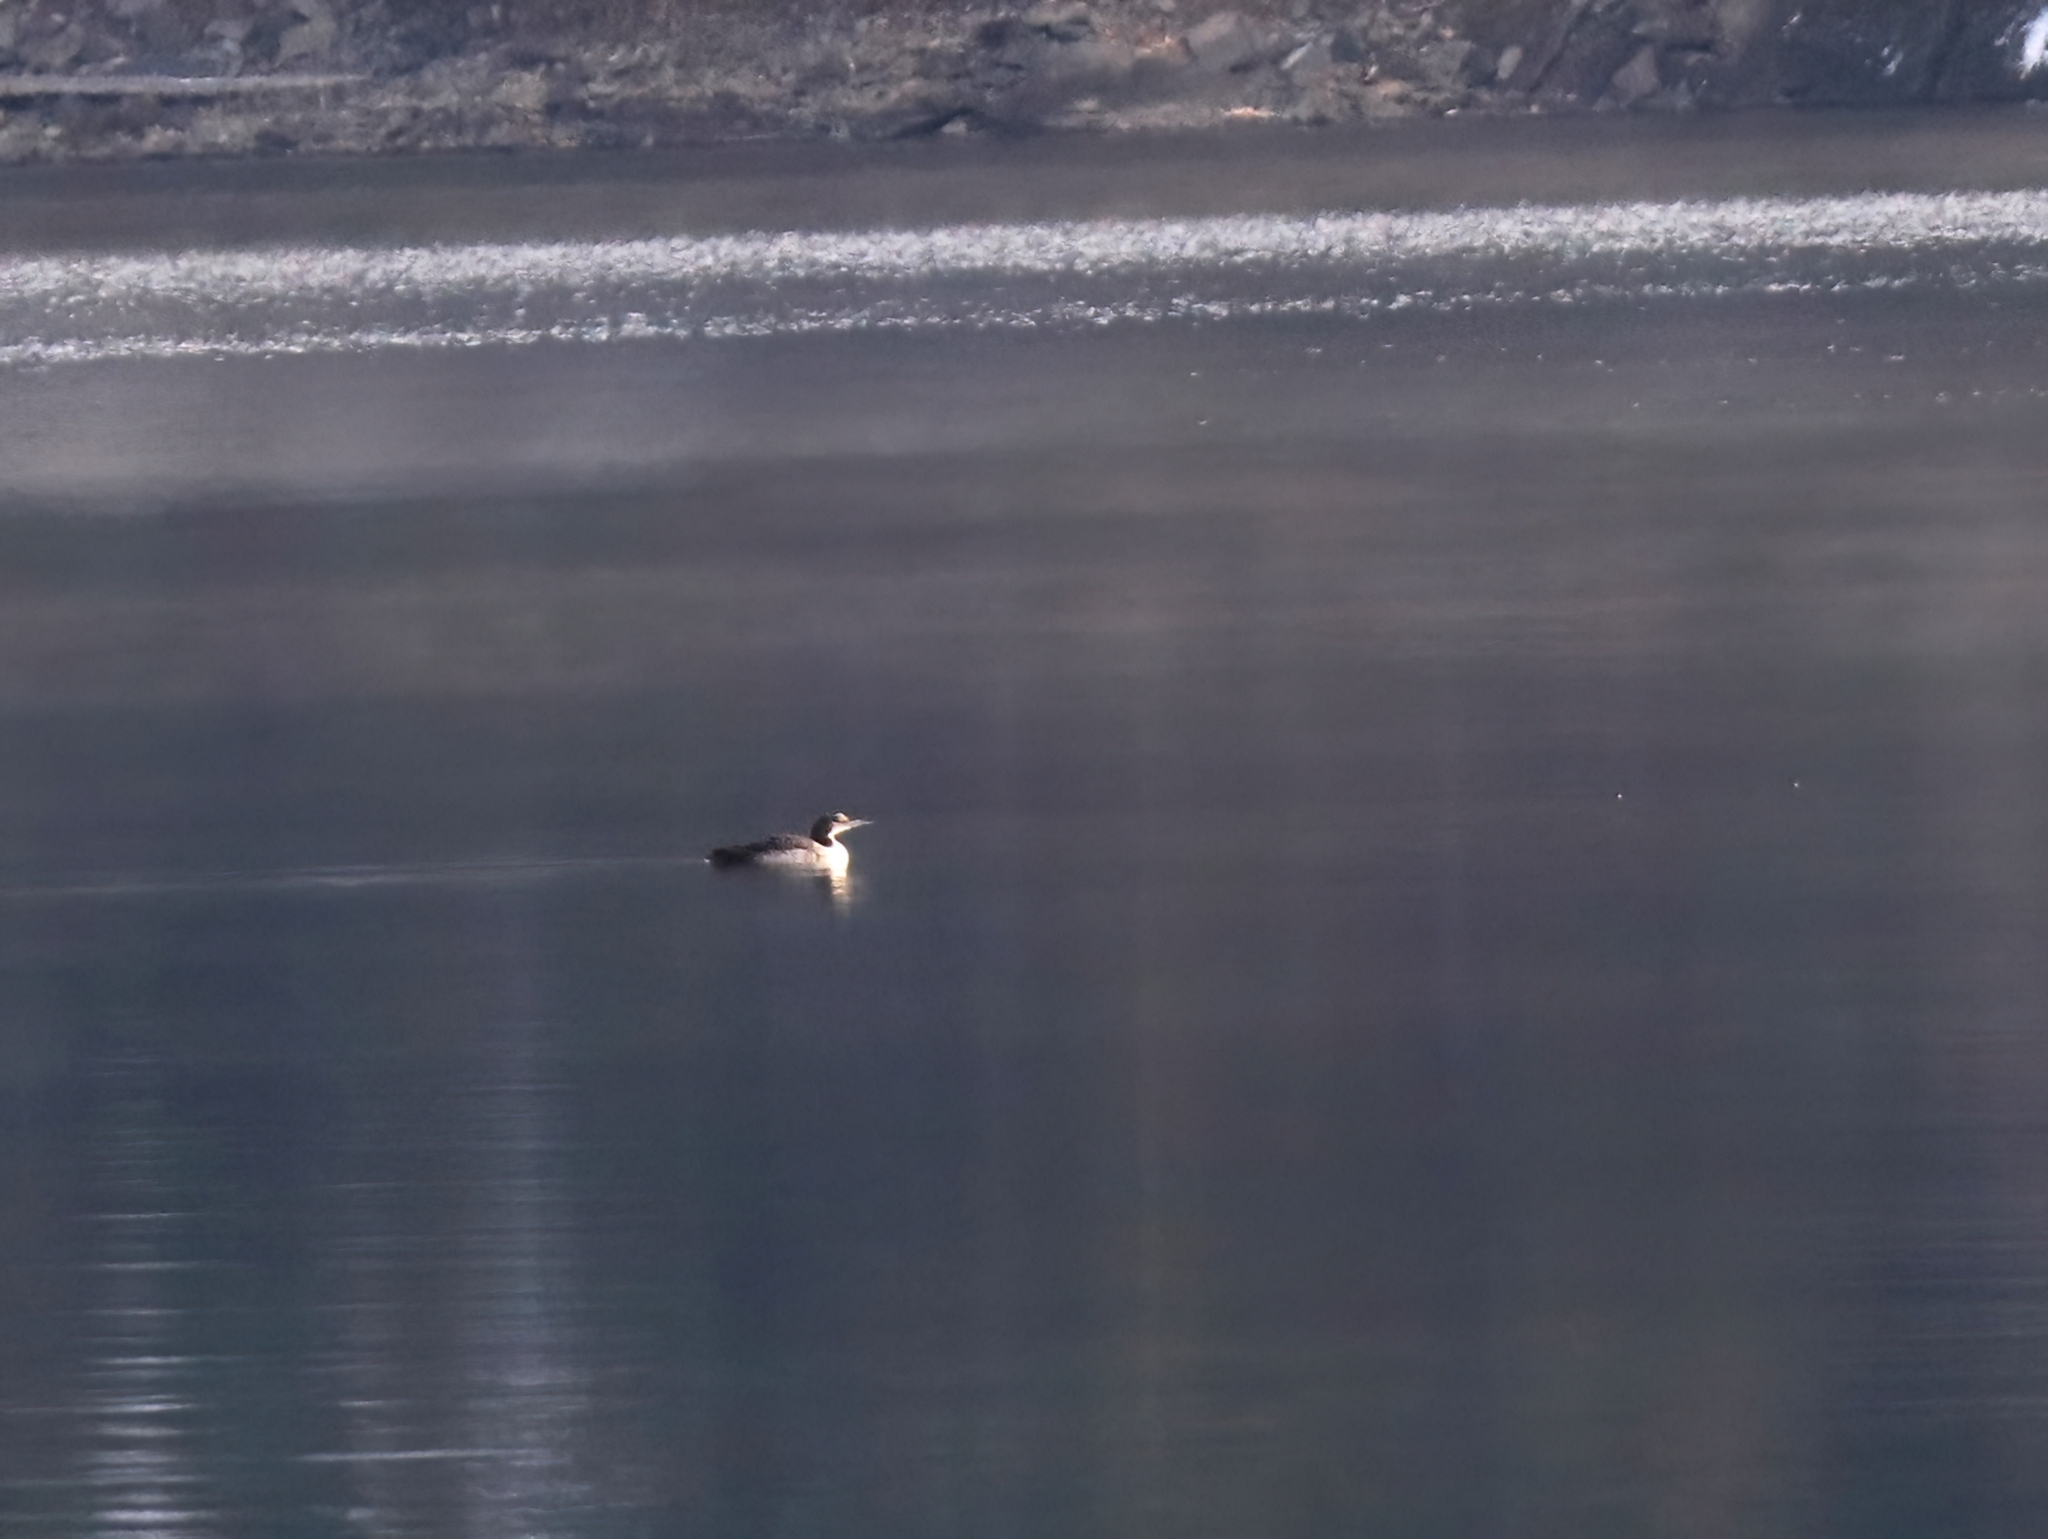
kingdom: Animalia
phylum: Chordata
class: Aves
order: Gaviiformes
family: Gaviidae
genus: Gavia
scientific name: Gavia immer
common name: Common loon
